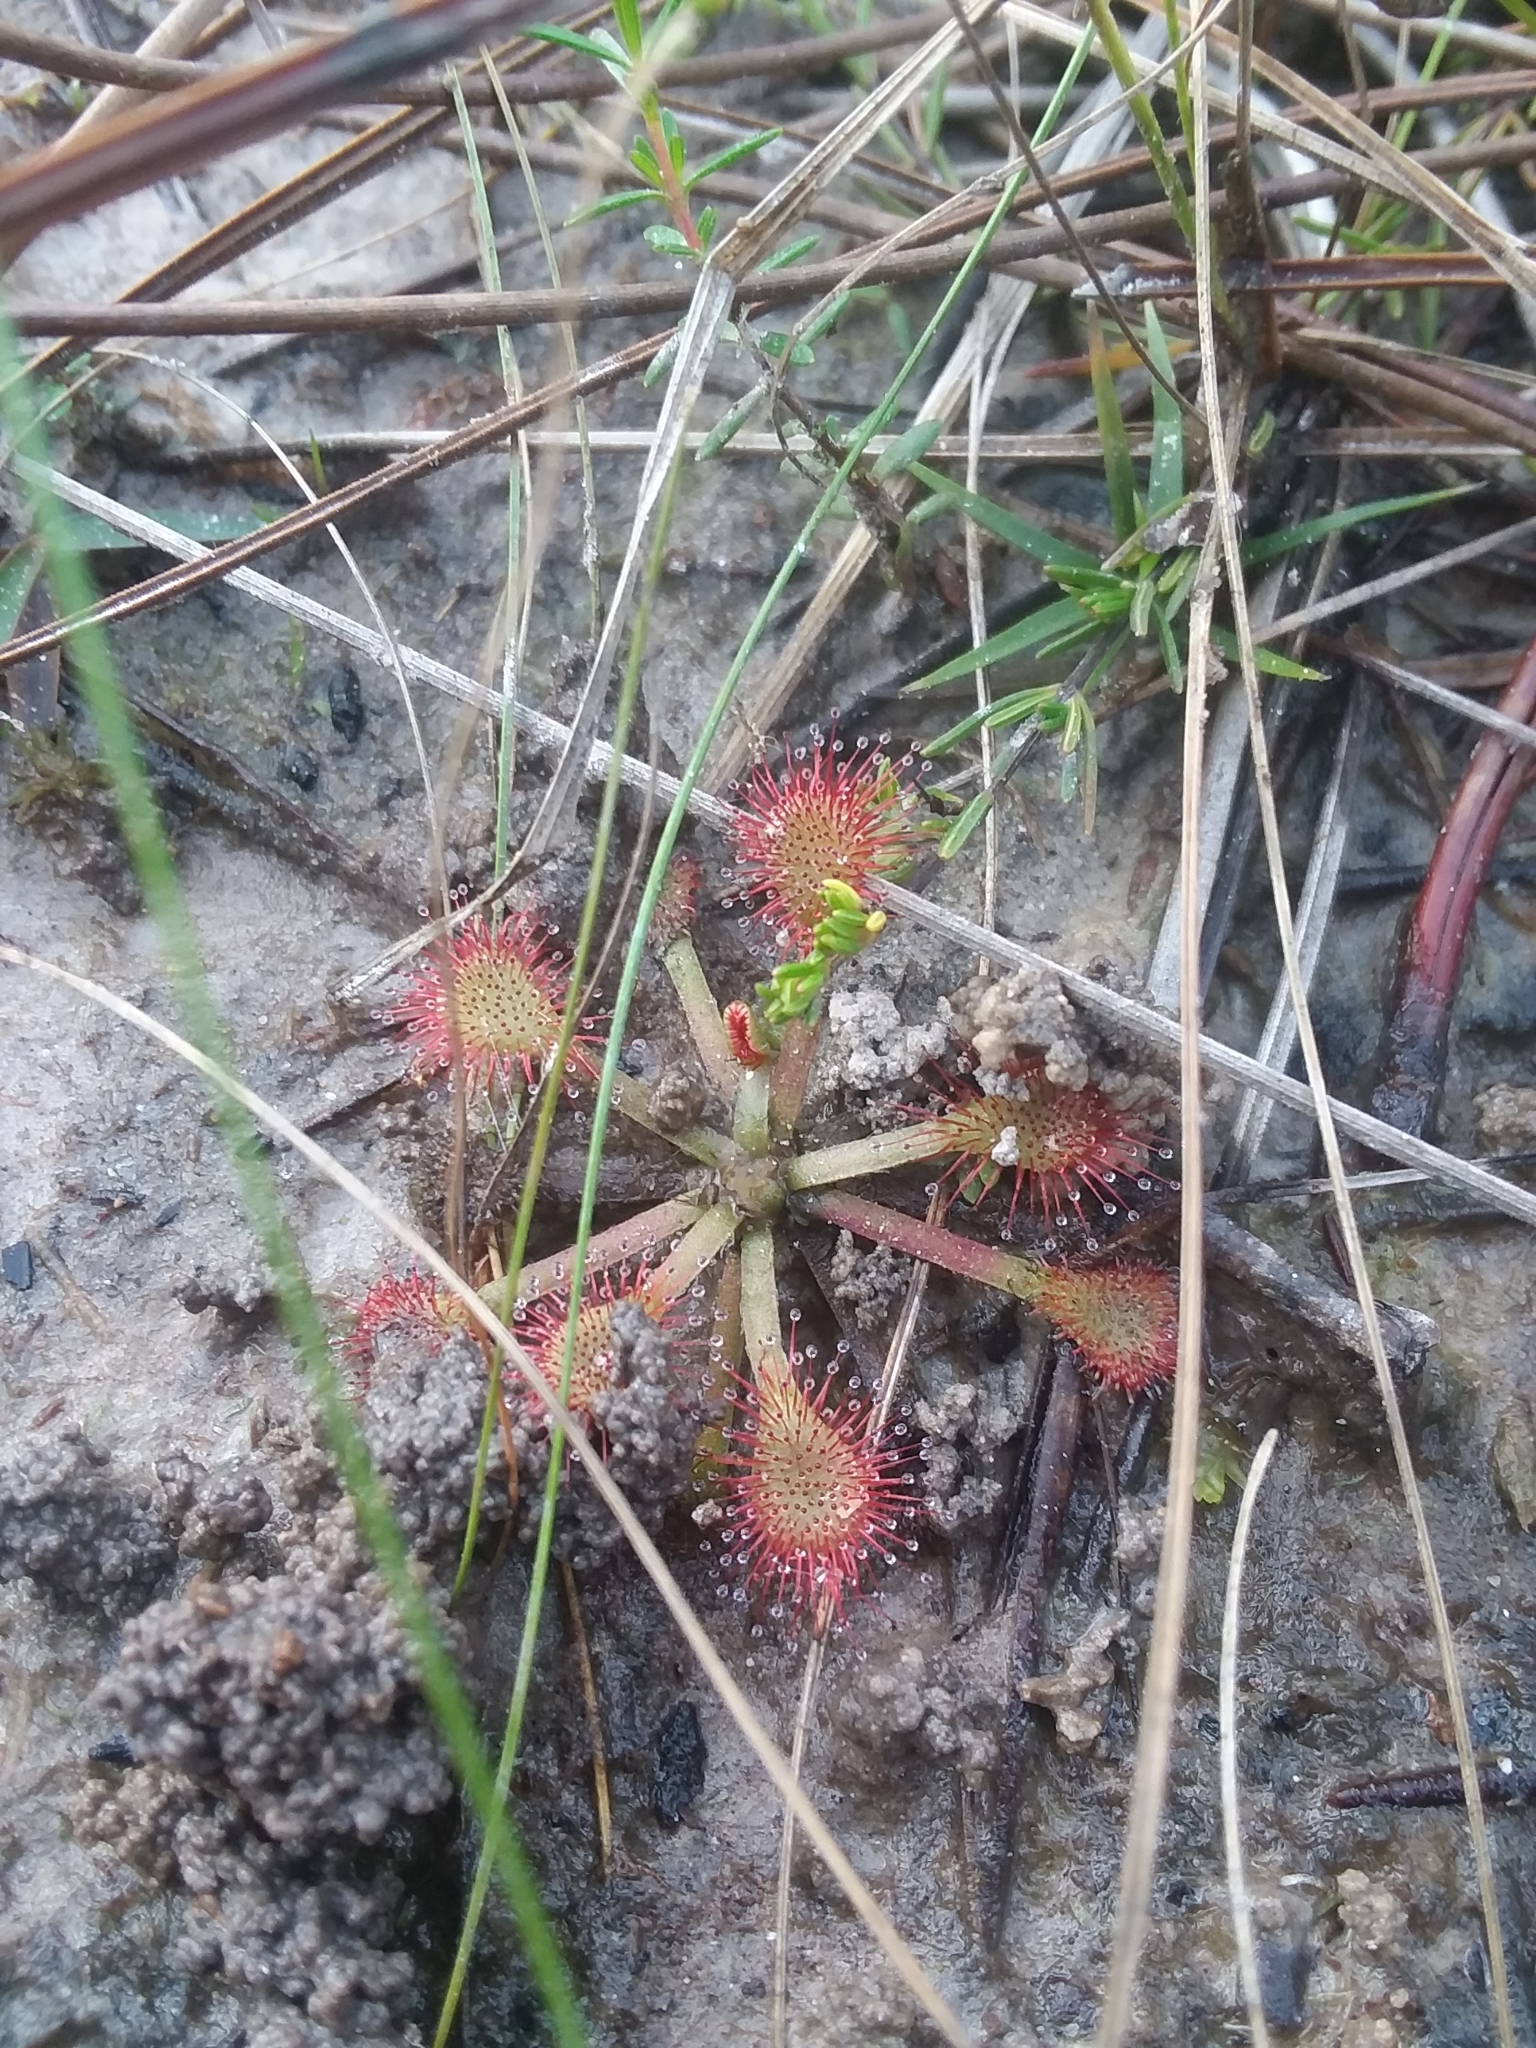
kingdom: Plantae
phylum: Tracheophyta
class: Magnoliopsida
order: Caryophyllales
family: Droseraceae
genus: Drosera
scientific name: Drosera capillaris
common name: Pink sundew
